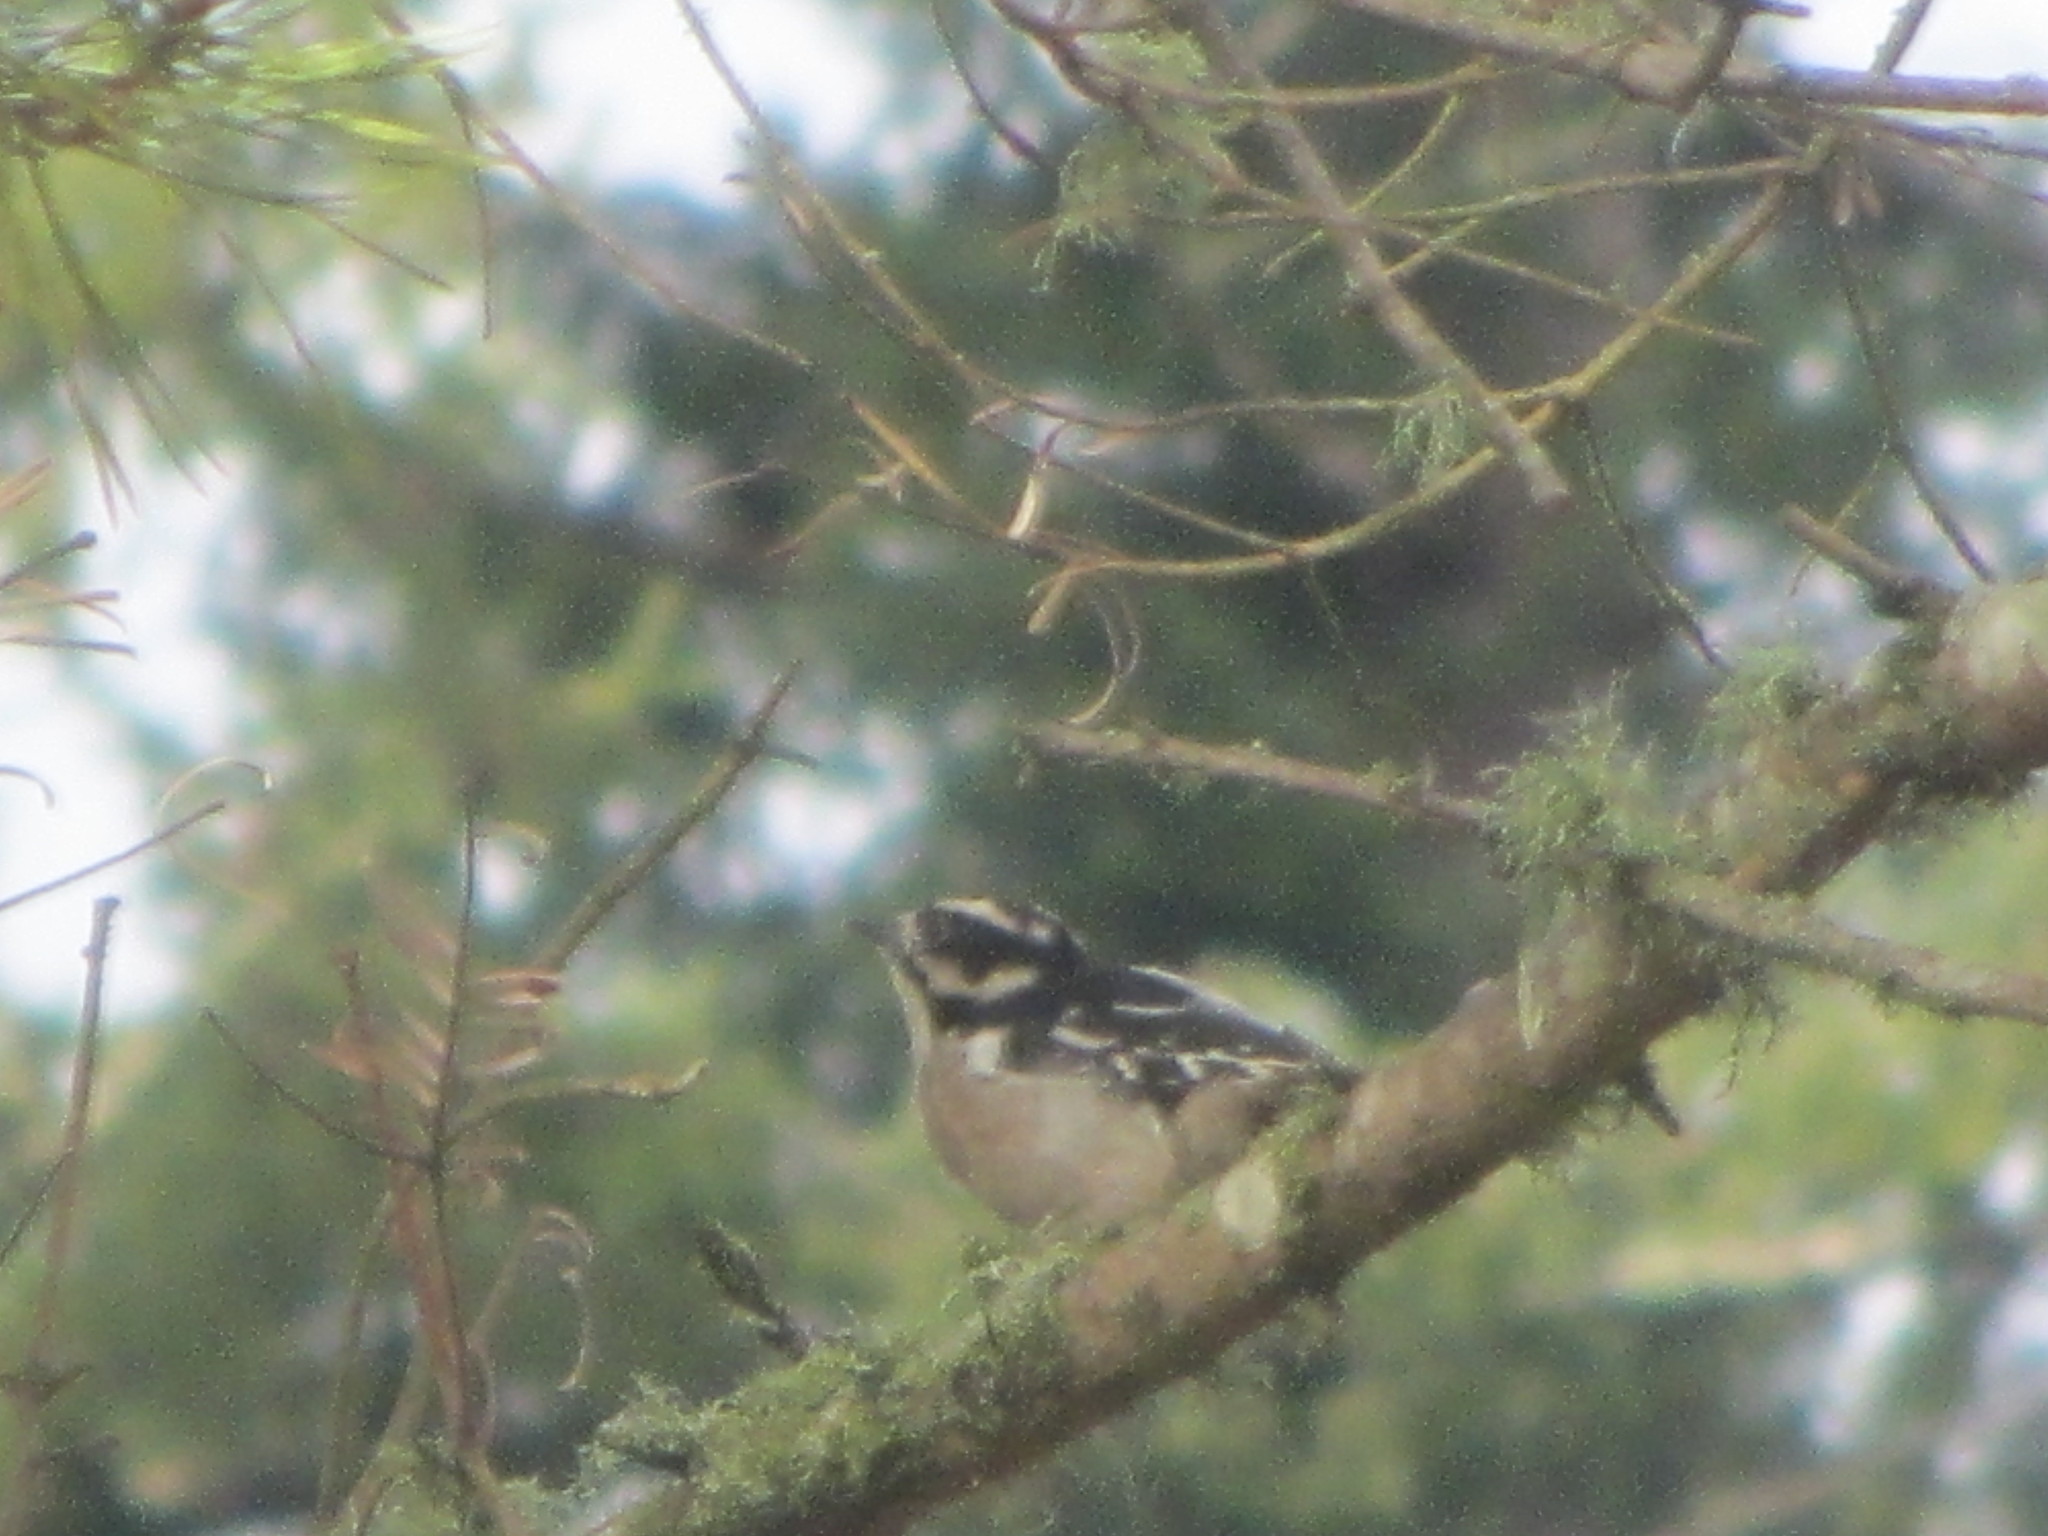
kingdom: Animalia
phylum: Chordata
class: Aves
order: Piciformes
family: Picidae
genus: Dryobates
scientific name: Dryobates pubescens
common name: Downy woodpecker
